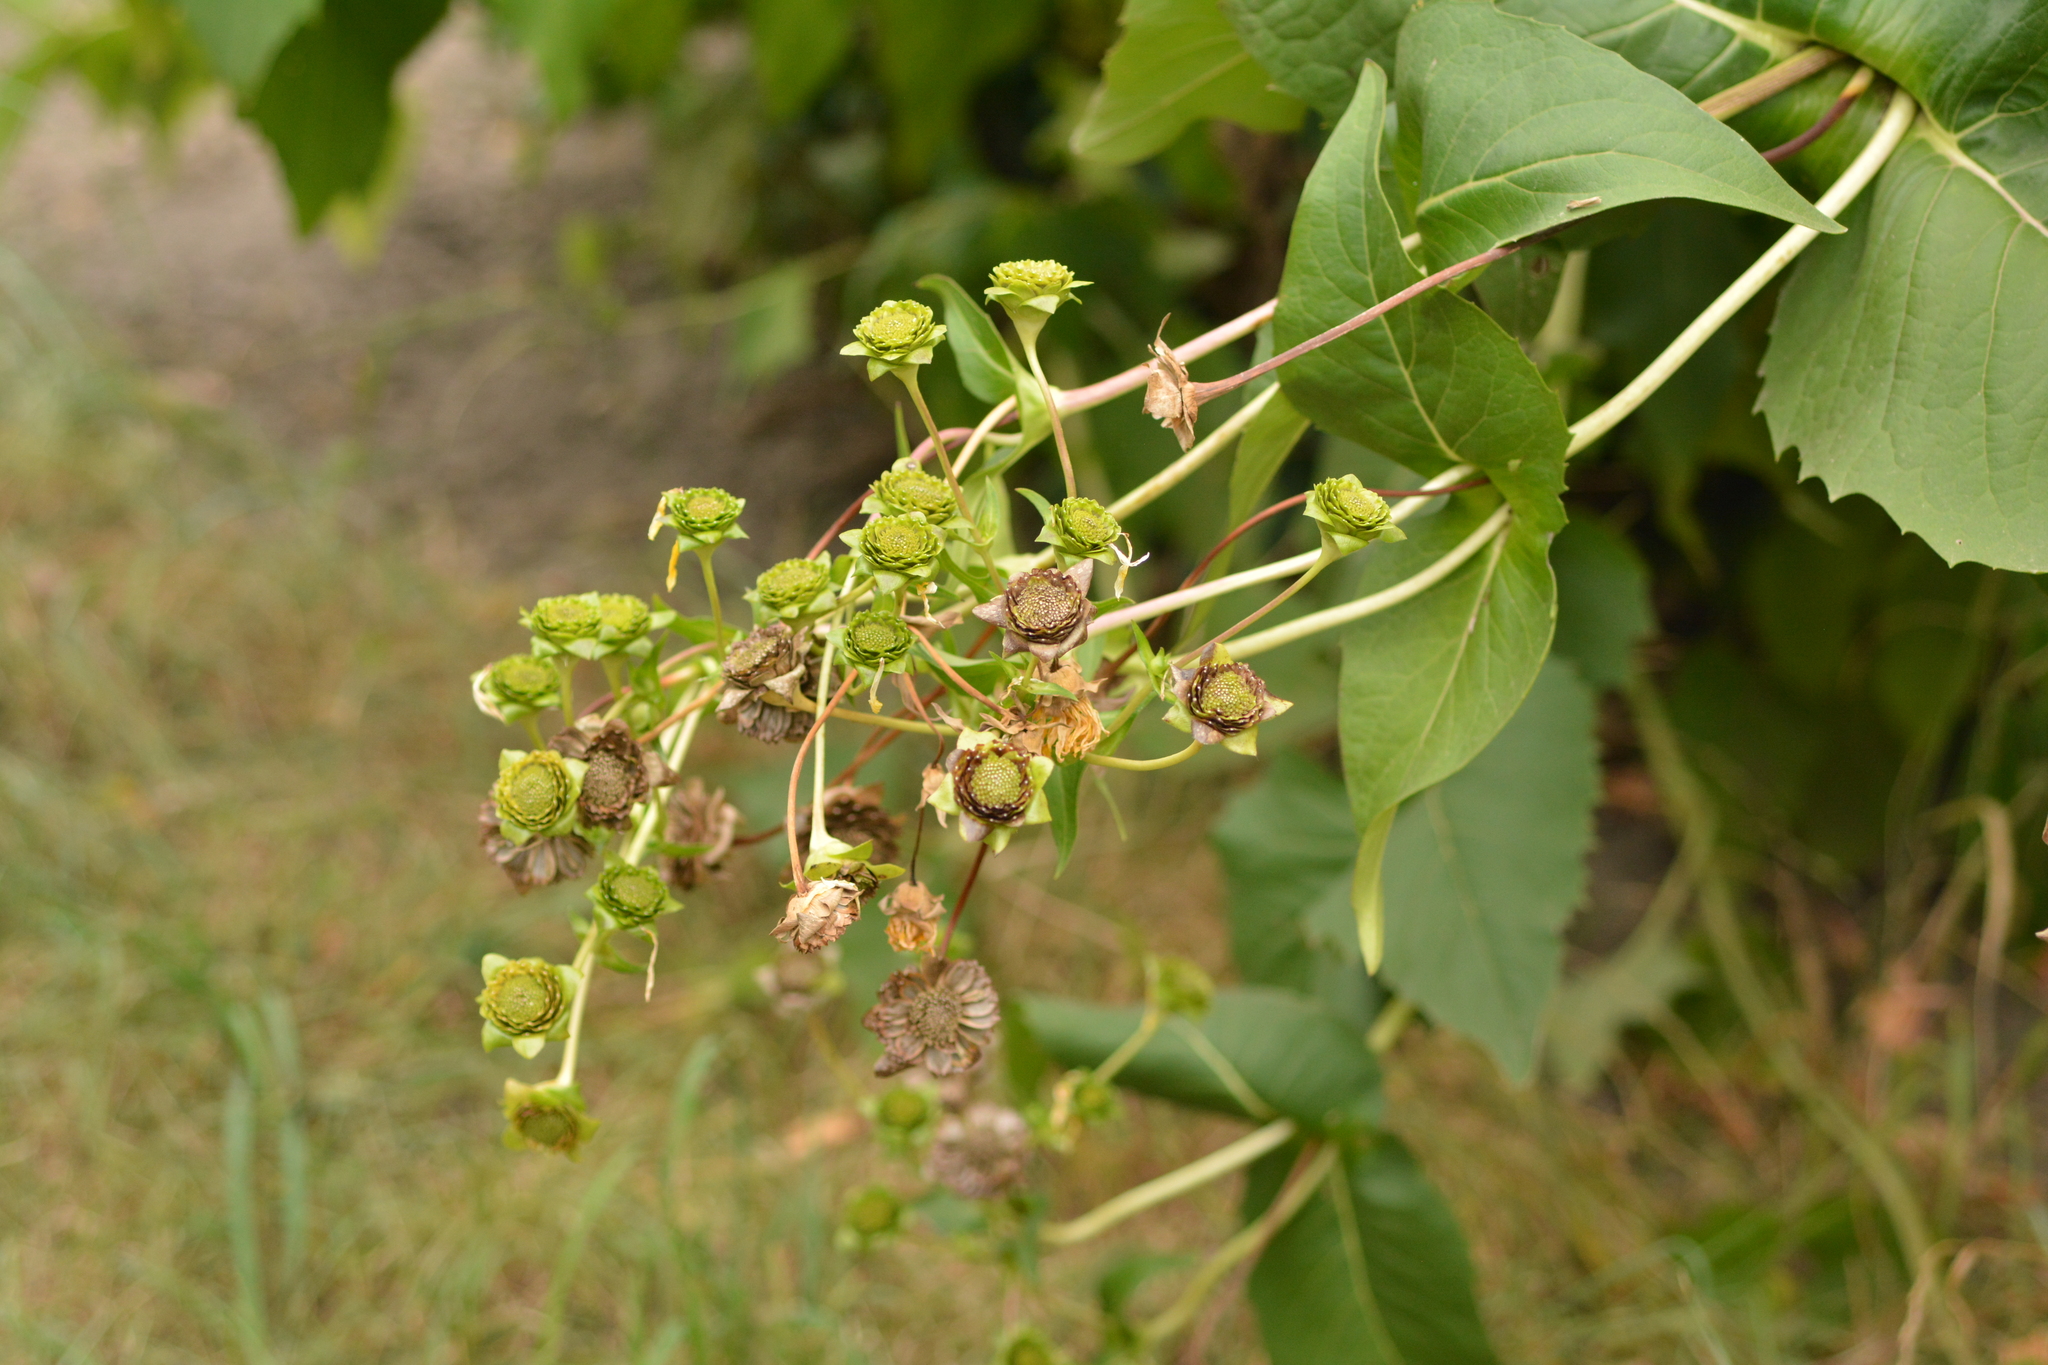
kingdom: Plantae
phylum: Tracheophyta
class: Magnoliopsida
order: Asterales
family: Asteraceae
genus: Silphium
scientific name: Silphium perfoliatum
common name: Cup-plant
